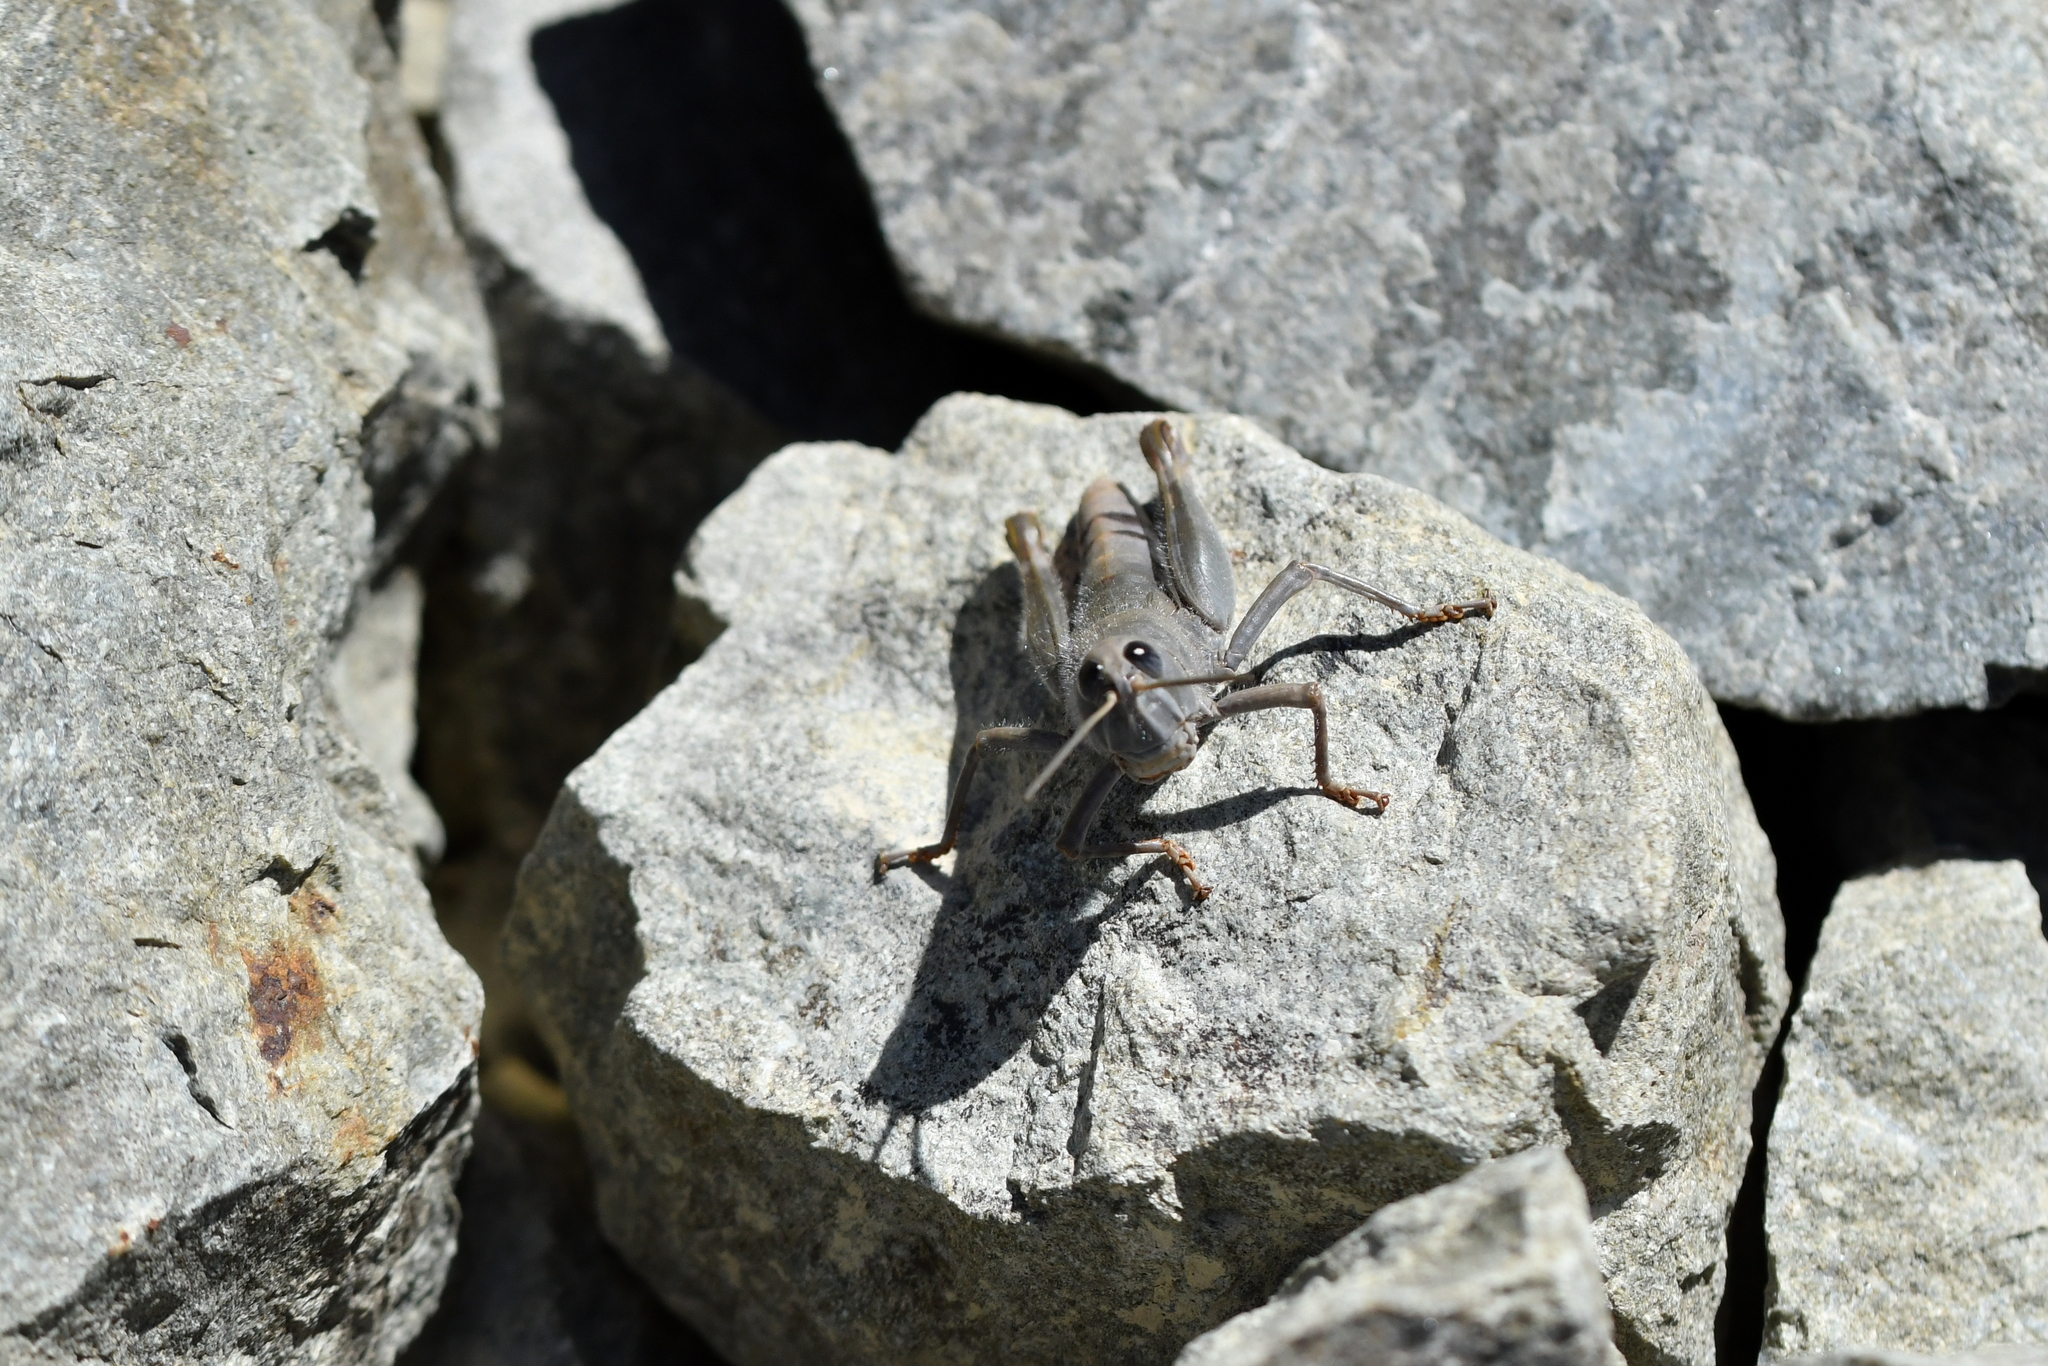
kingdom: Animalia
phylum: Arthropoda
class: Insecta
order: Orthoptera
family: Acrididae
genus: Sigaus
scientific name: Sigaus villosus
